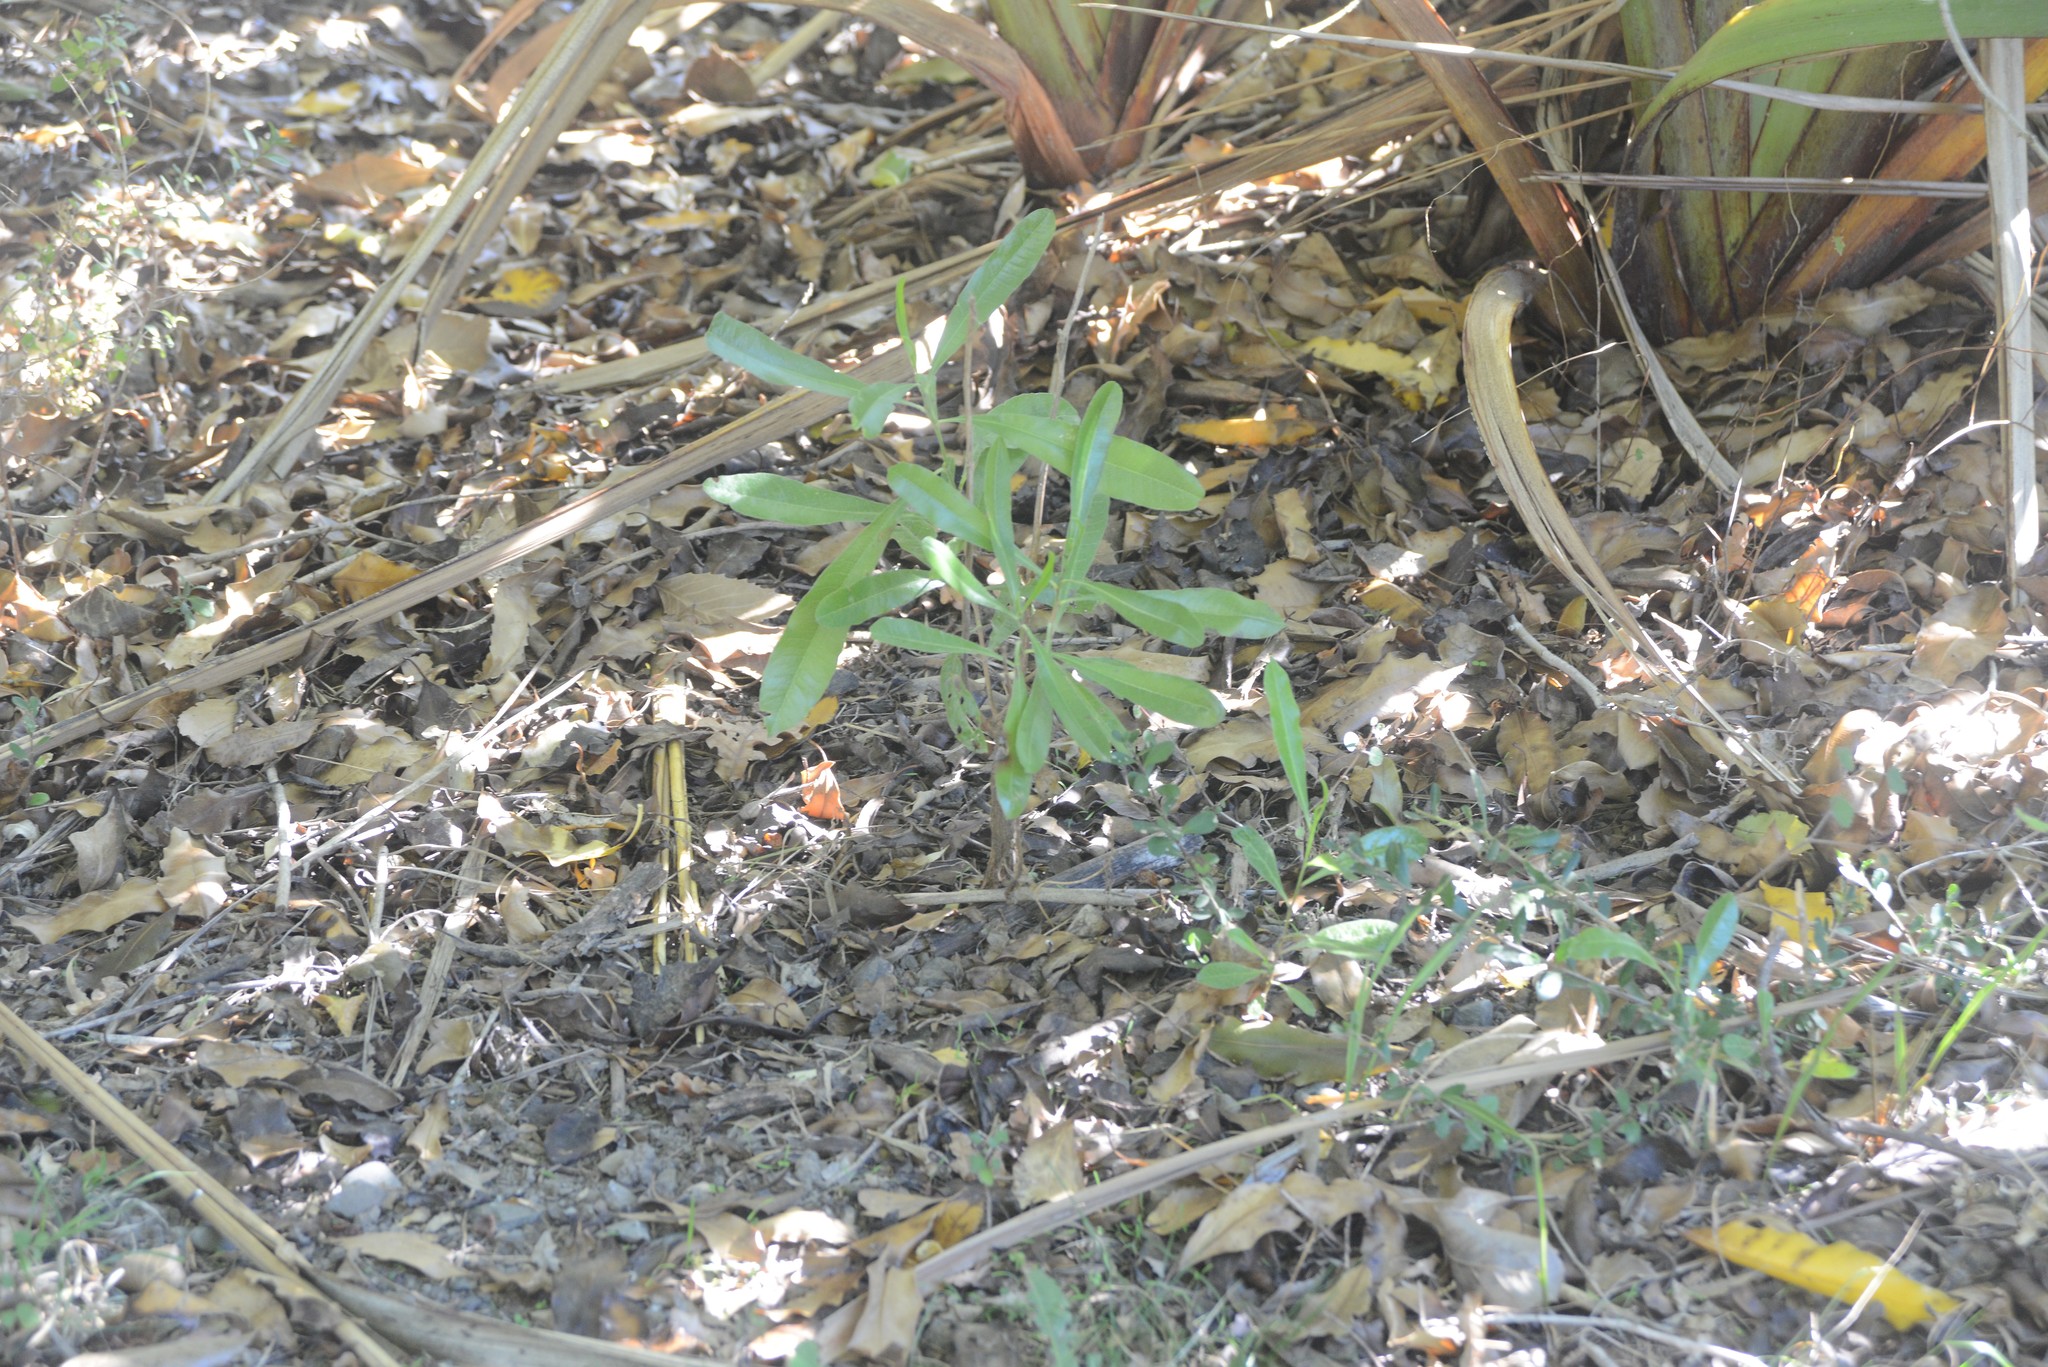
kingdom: Plantae
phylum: Tracheophyta
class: Magnoliopsida
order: Sapindales
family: Sapindaceae
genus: Dodonaea
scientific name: Dodonaea viscosa
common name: Hopbush
